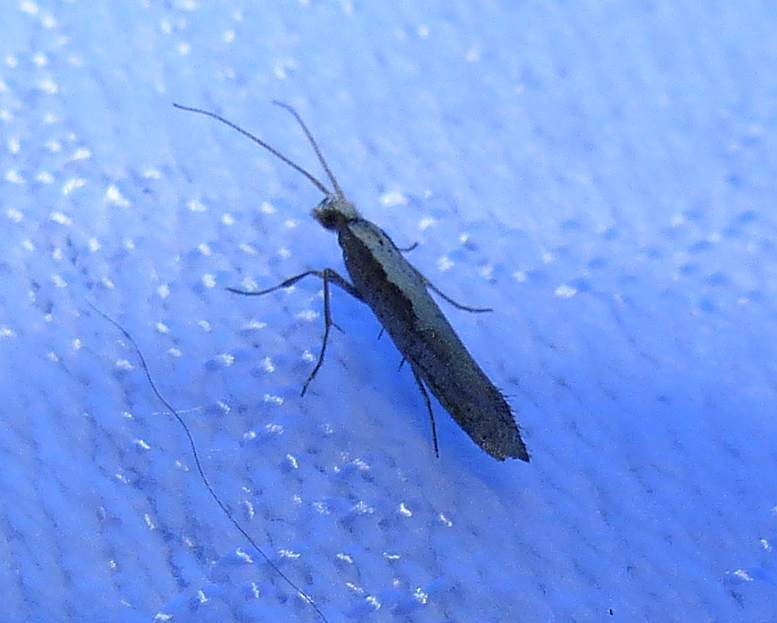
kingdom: Animalia
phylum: Arthropoda
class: Insecta
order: Lepidoptera
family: Plutellidae
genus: Plutella
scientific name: Plutella xylostella
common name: Diamond-back moth
